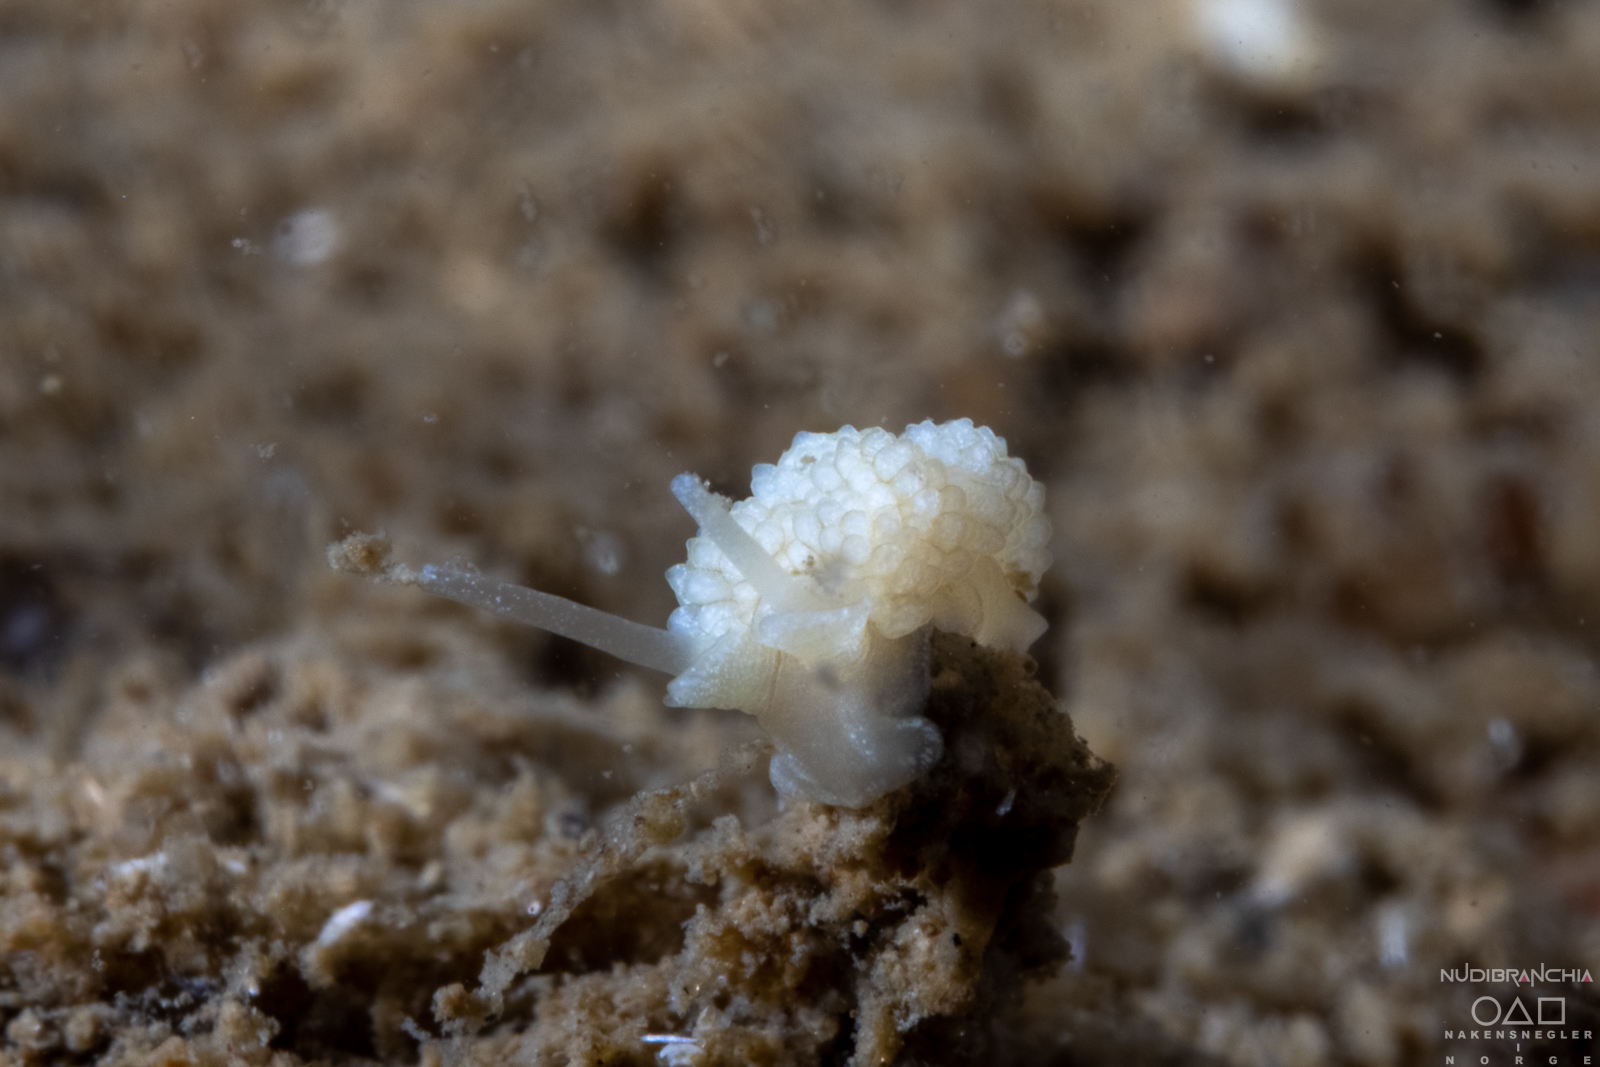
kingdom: Animalia
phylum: Mollusca
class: Gastropoda
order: Nudibranchia
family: Dotidae
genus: Doto
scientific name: Doto fragilis
